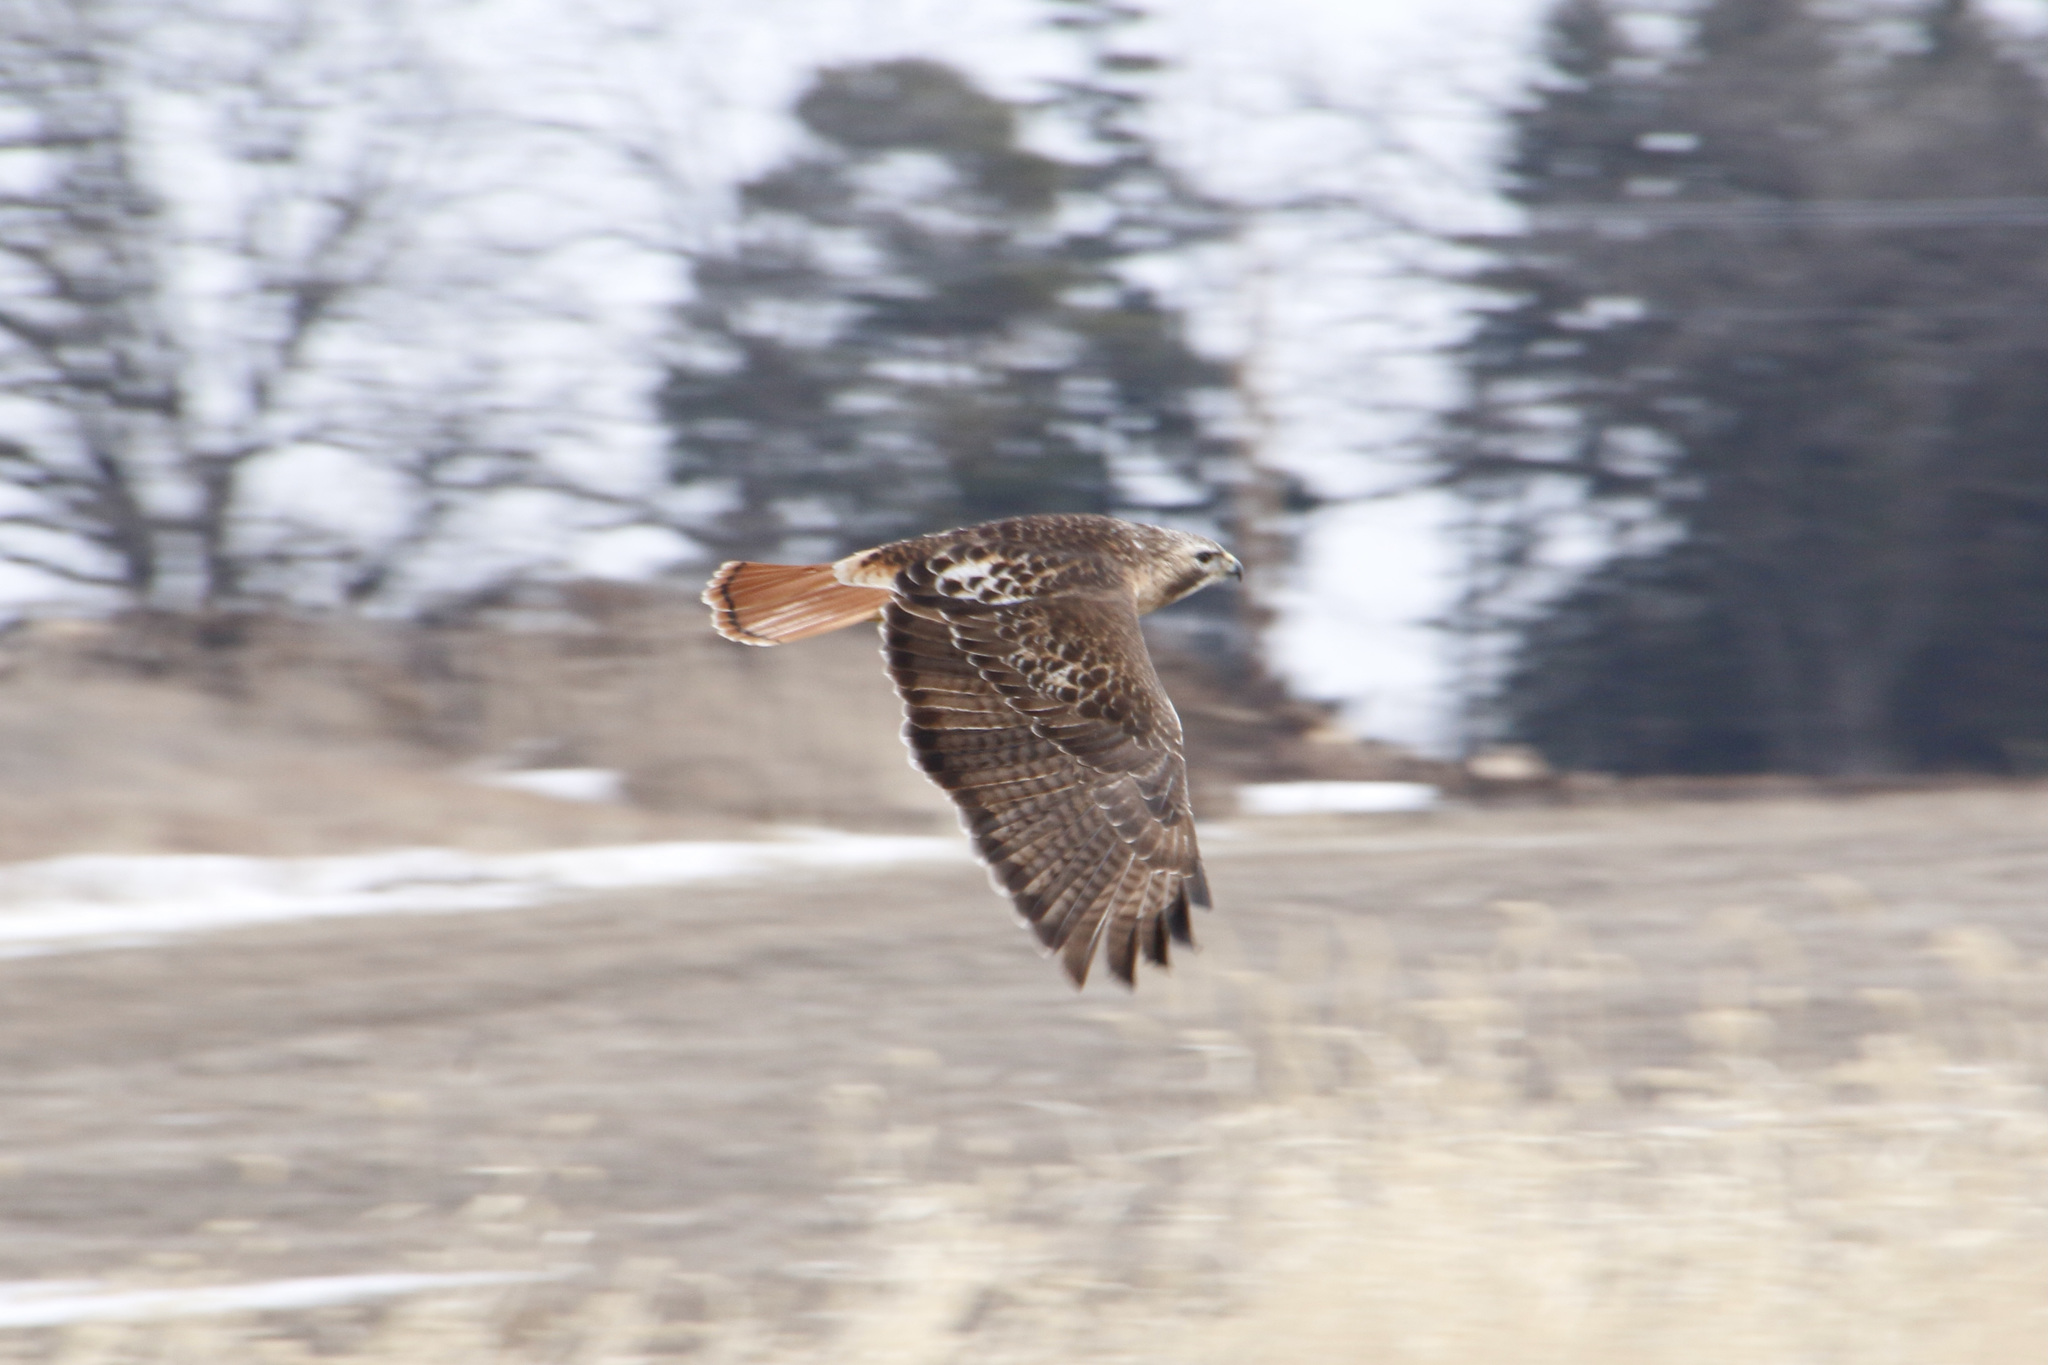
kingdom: Animalia
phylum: Chordata
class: Aves
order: Accipitriformes
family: Accipitridae
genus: Buteo
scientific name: Buteo jamaicensis
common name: Red-tailed hawk
